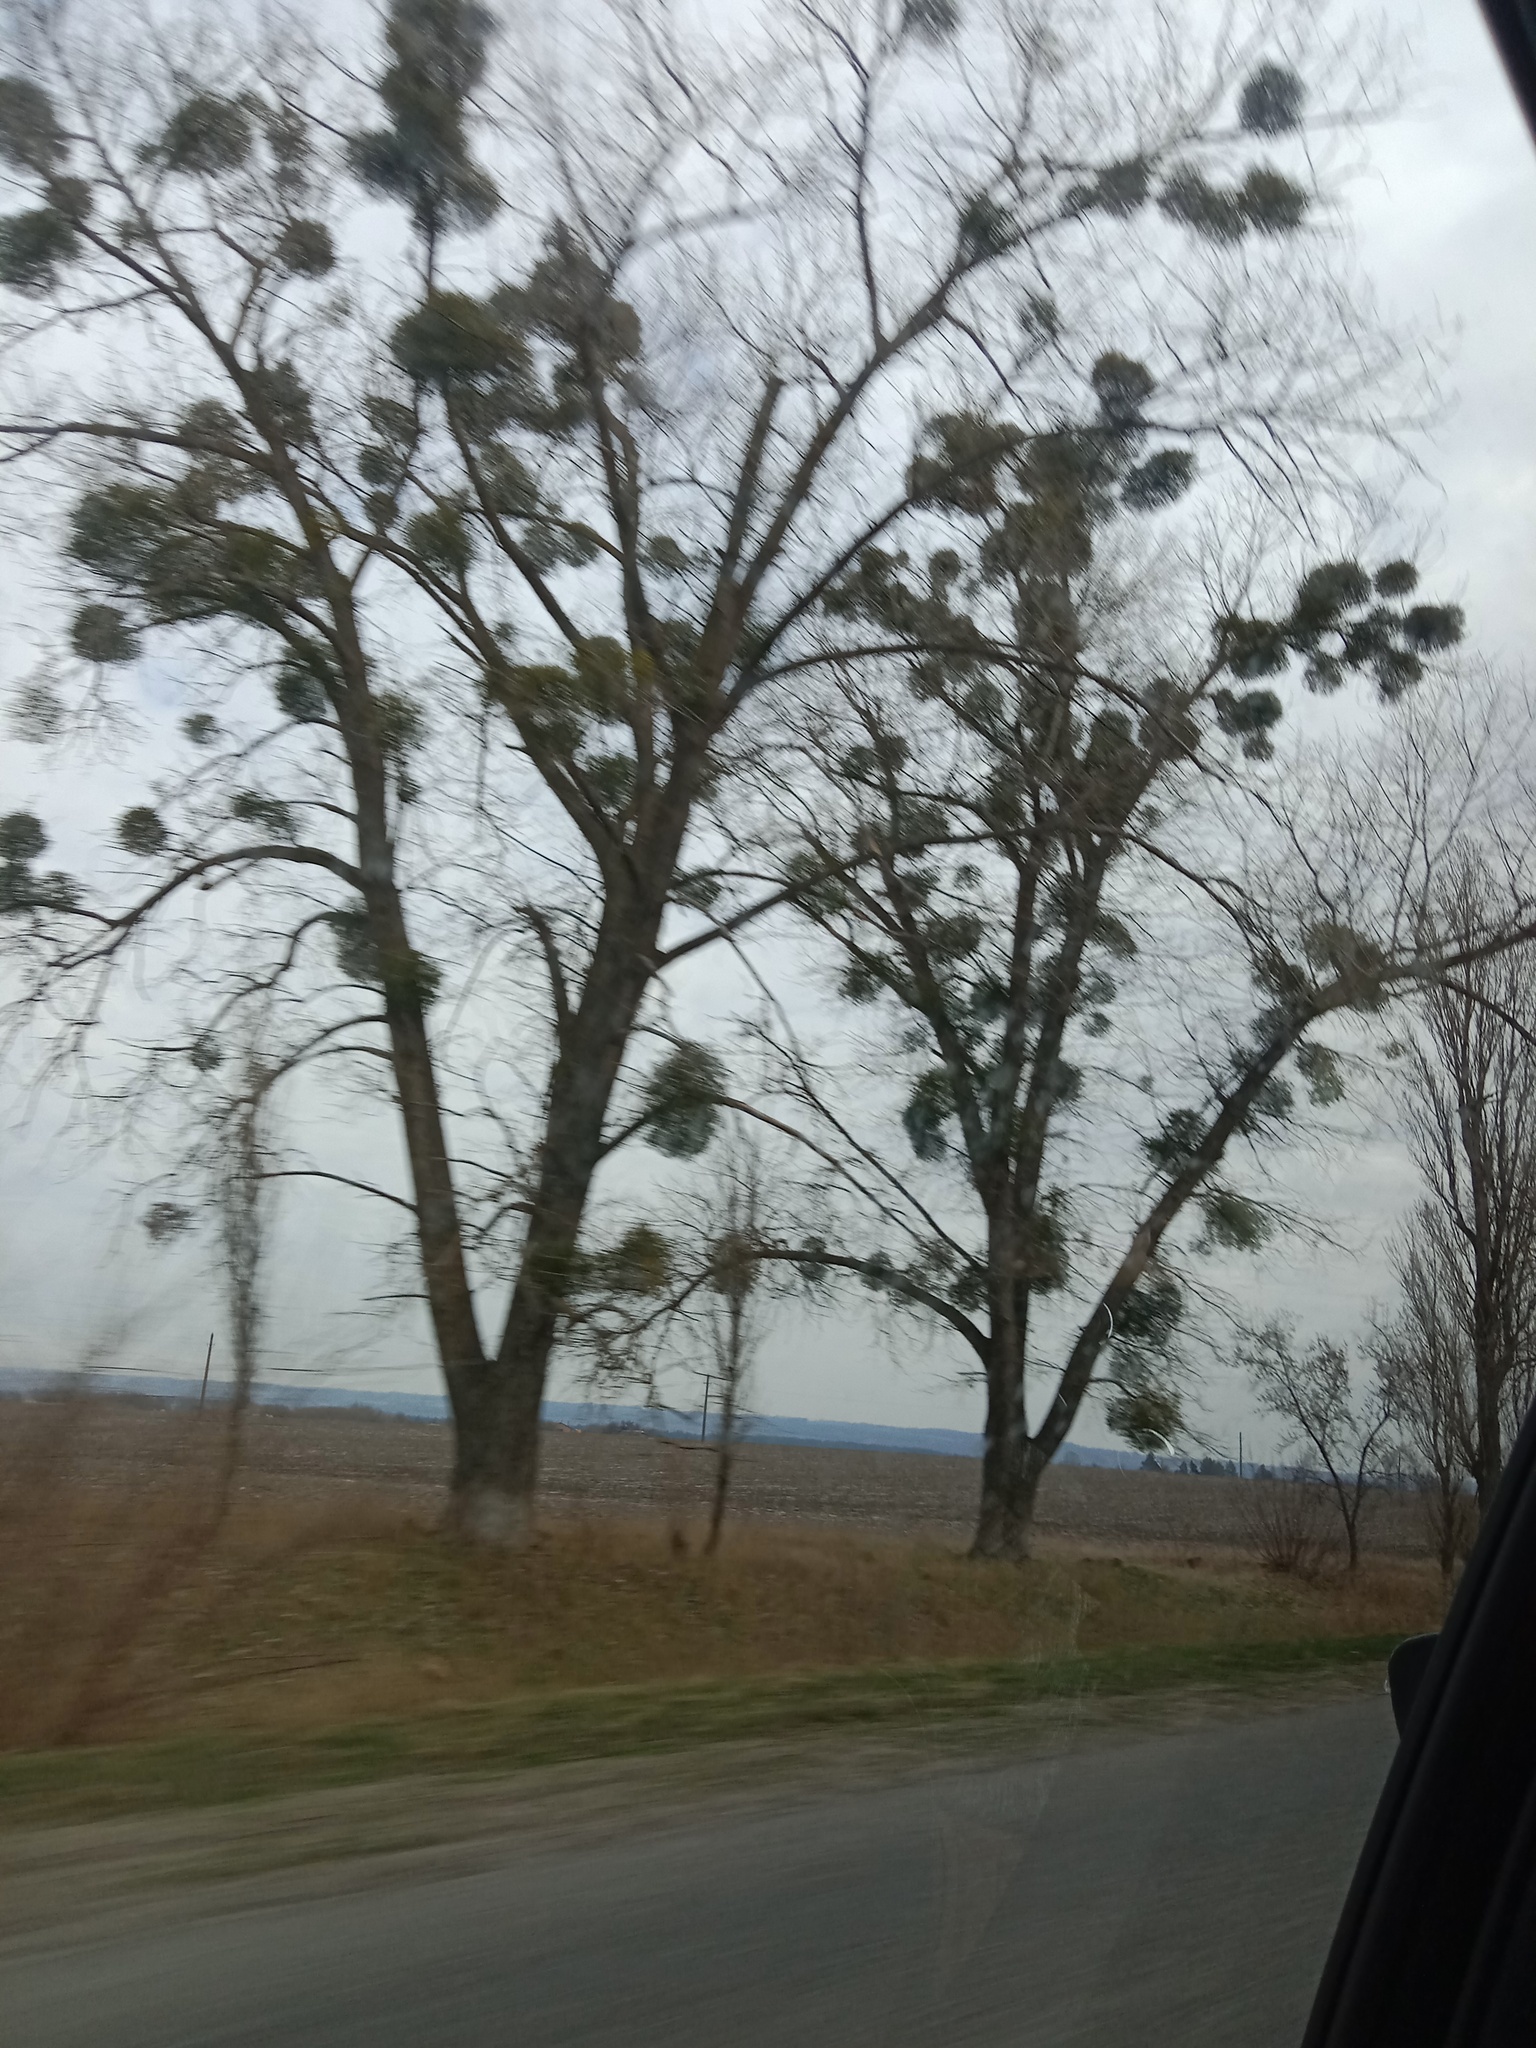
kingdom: Plantae
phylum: Tracheophyta
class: Magnoliopsida
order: Santalales
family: Viscaceae
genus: Viscum
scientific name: Viscum album
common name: Mistletoe
